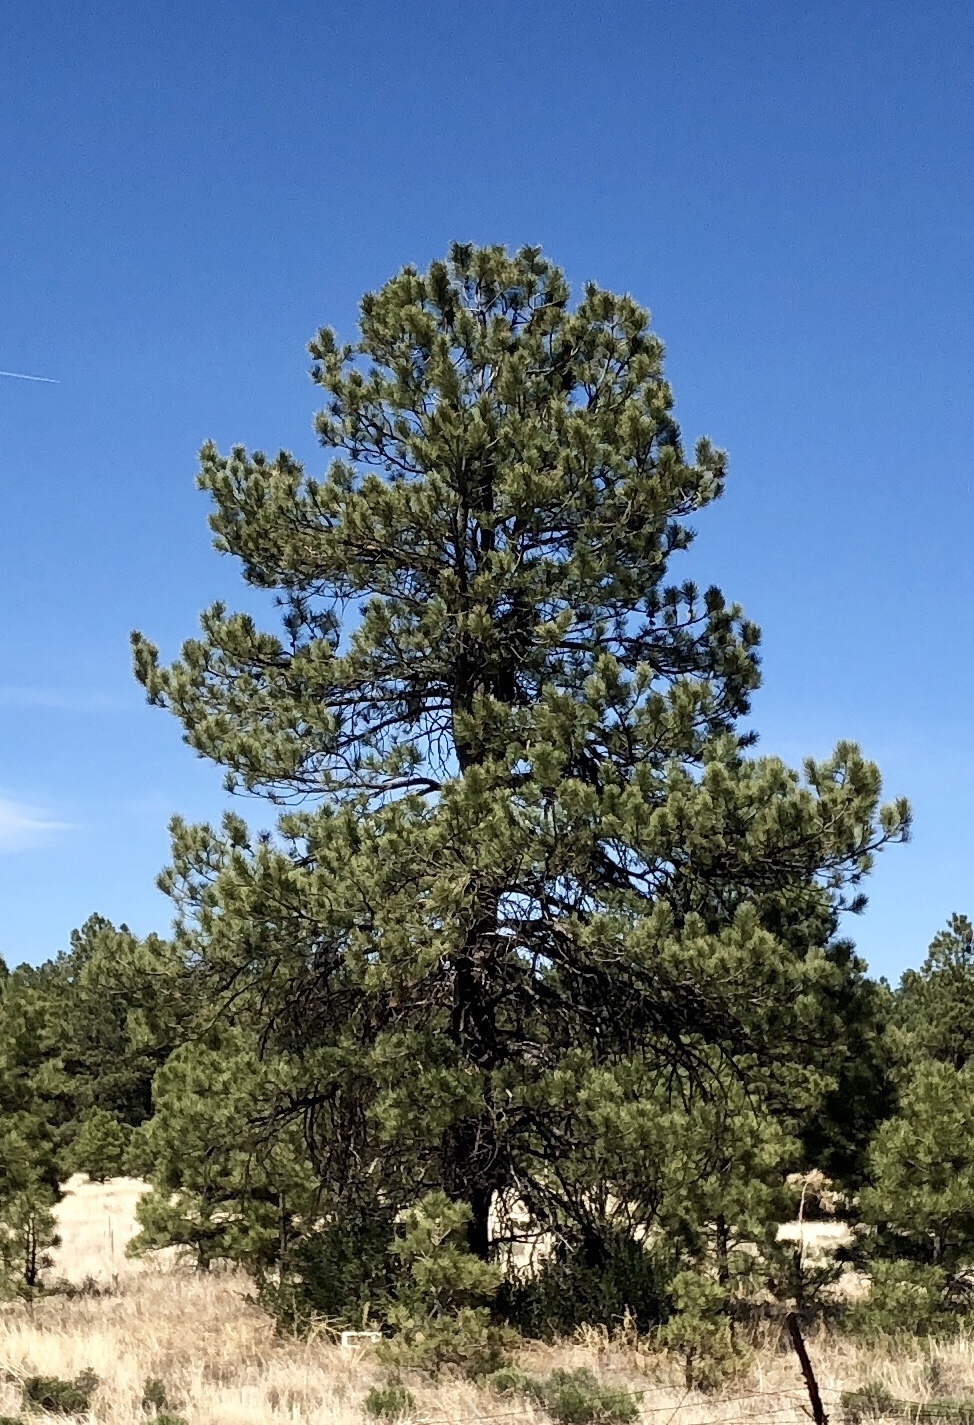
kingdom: Plantae
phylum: Tracheophyta
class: Pinopsida
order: Pinales
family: Pinaceae
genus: Pinus
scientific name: Pinus ponderosa
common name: Western yellow-pine
